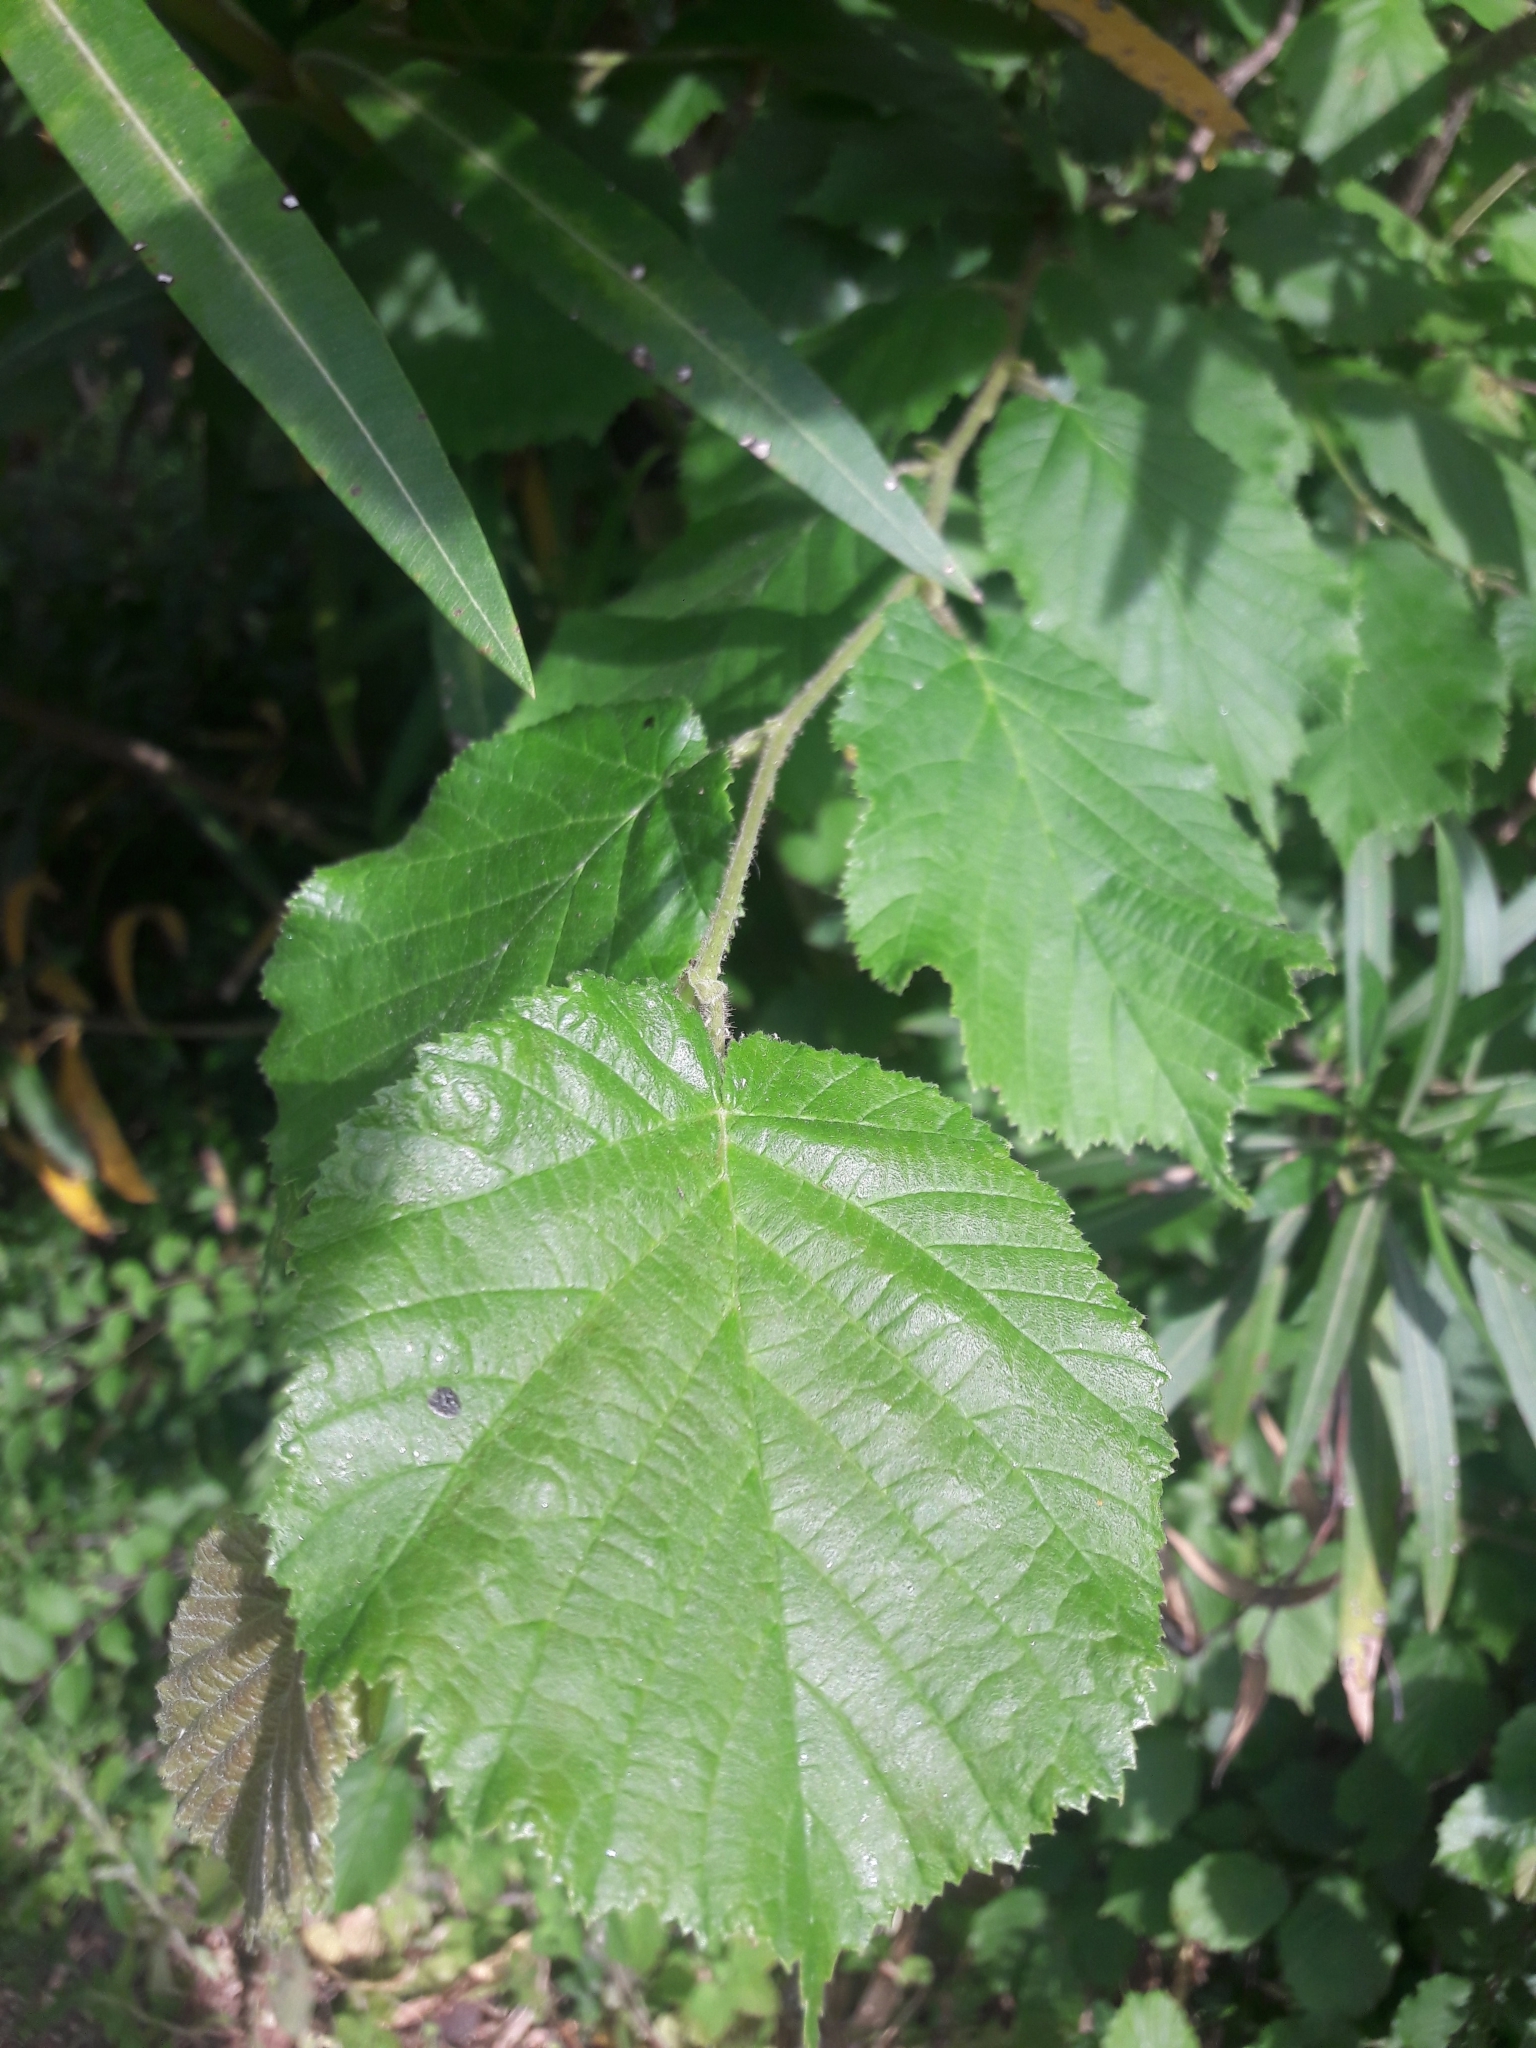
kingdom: Plantae
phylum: Tracheophyta
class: Magnoliopsida
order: Fagales
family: Betulaceae
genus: Corylus
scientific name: Corylus avellana
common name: European hazel
